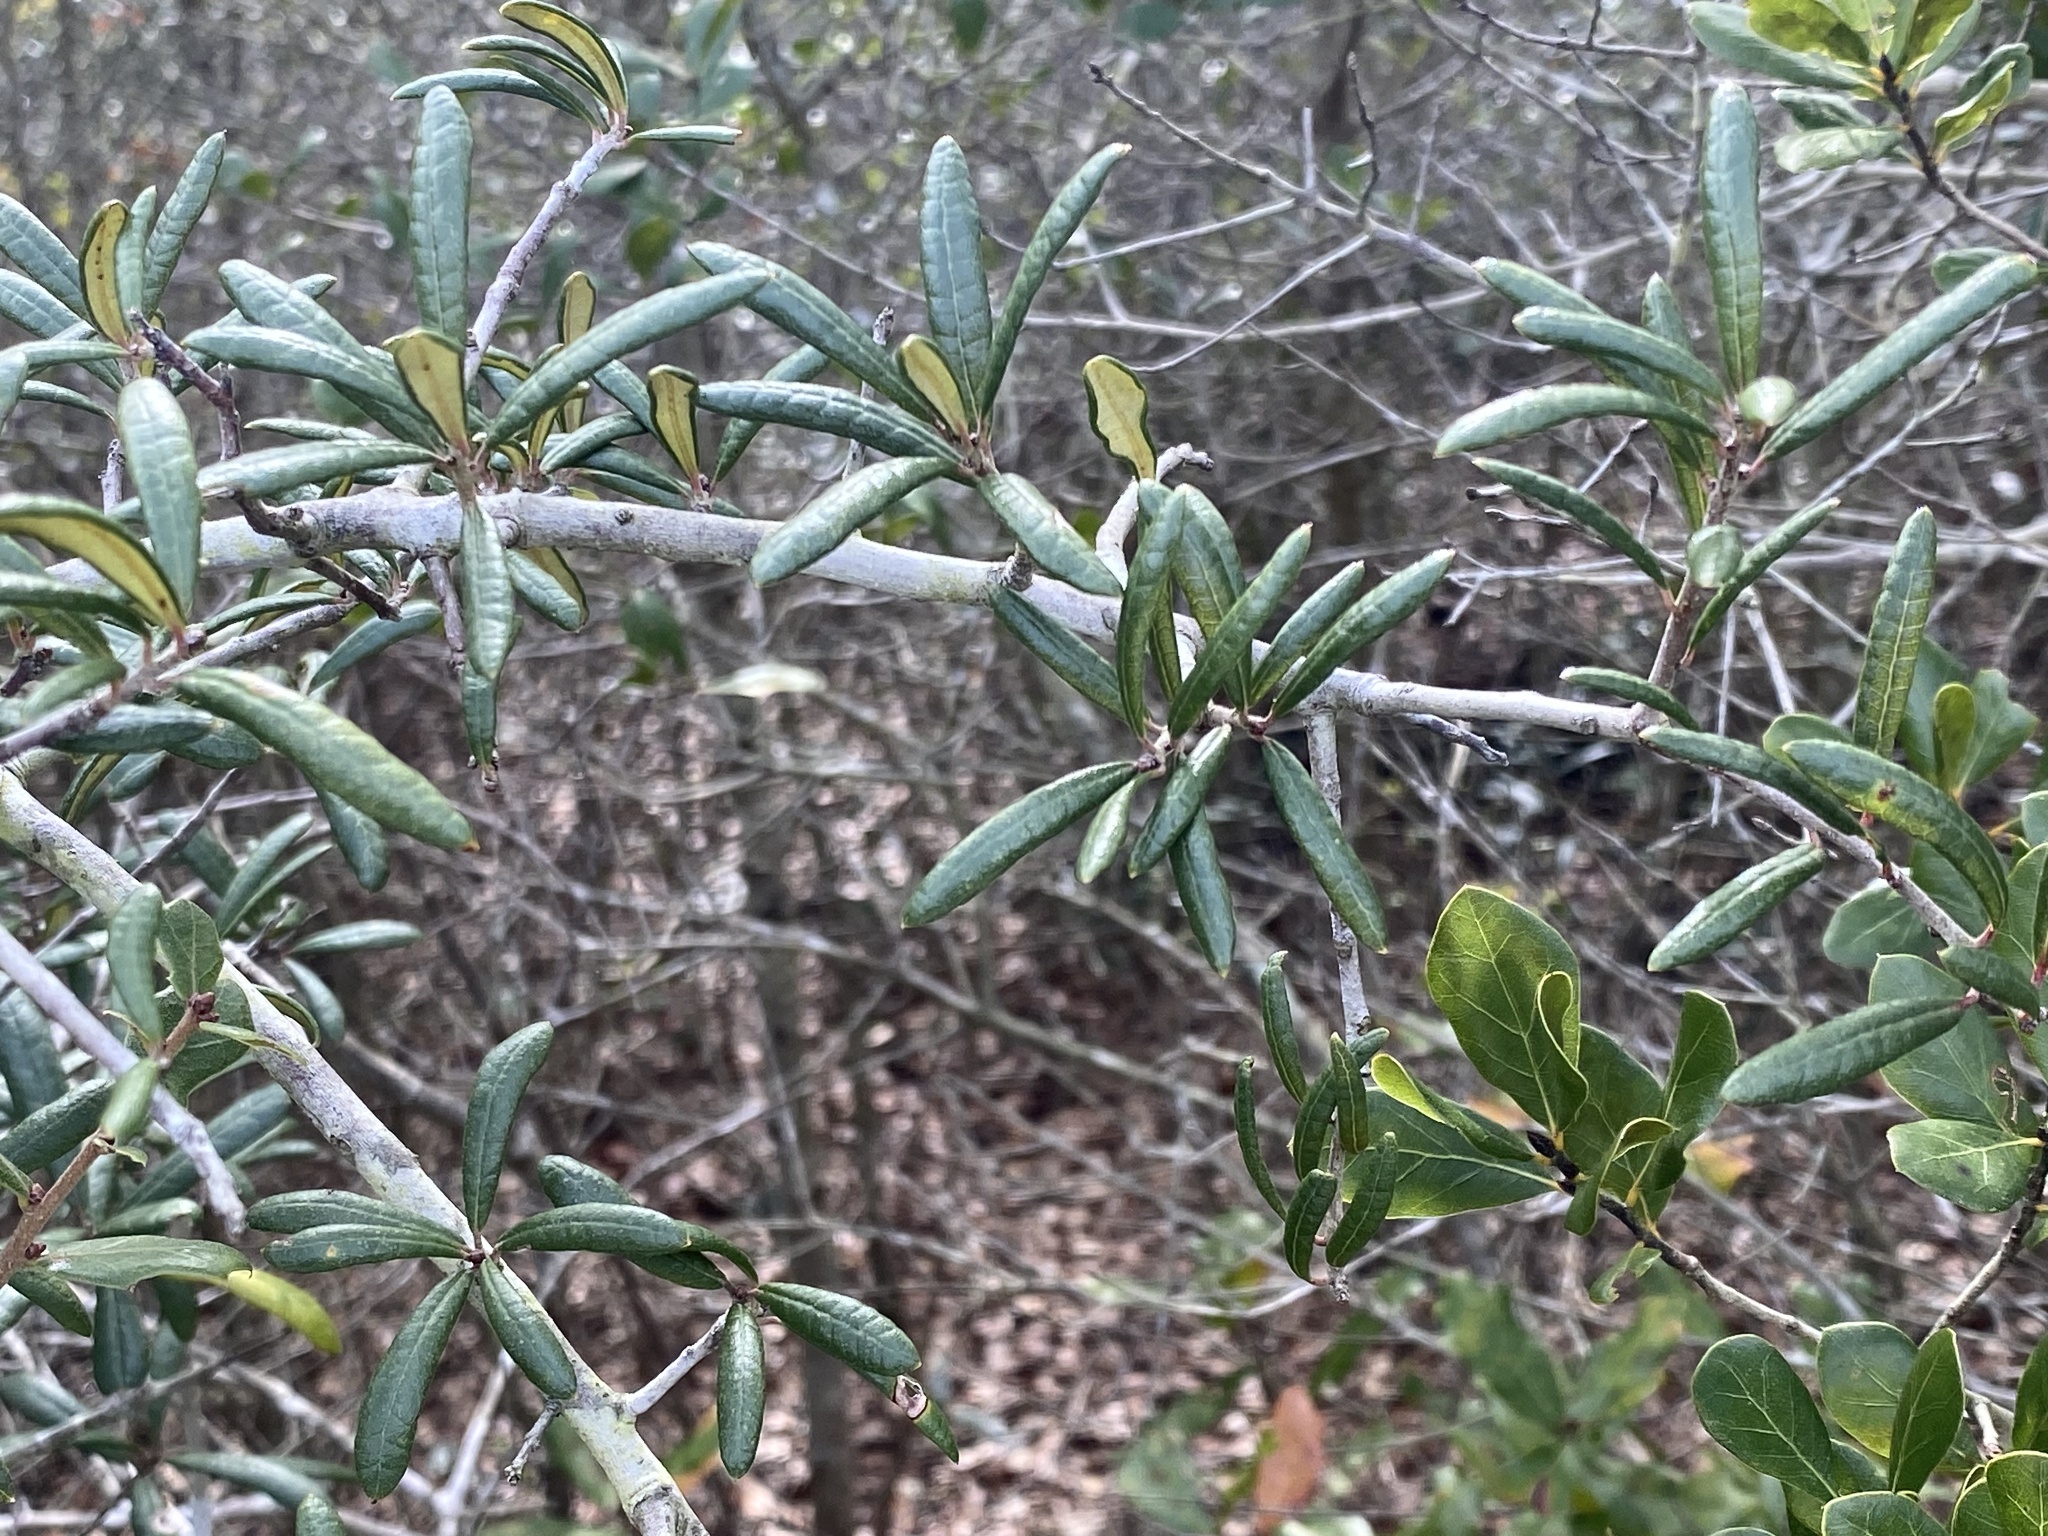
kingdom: Plantae
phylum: Tracheophyta
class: Magnoliopsida
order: Fagales
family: Fagaceae
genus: Quercus
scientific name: Quercus geminata
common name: Sand live oak
